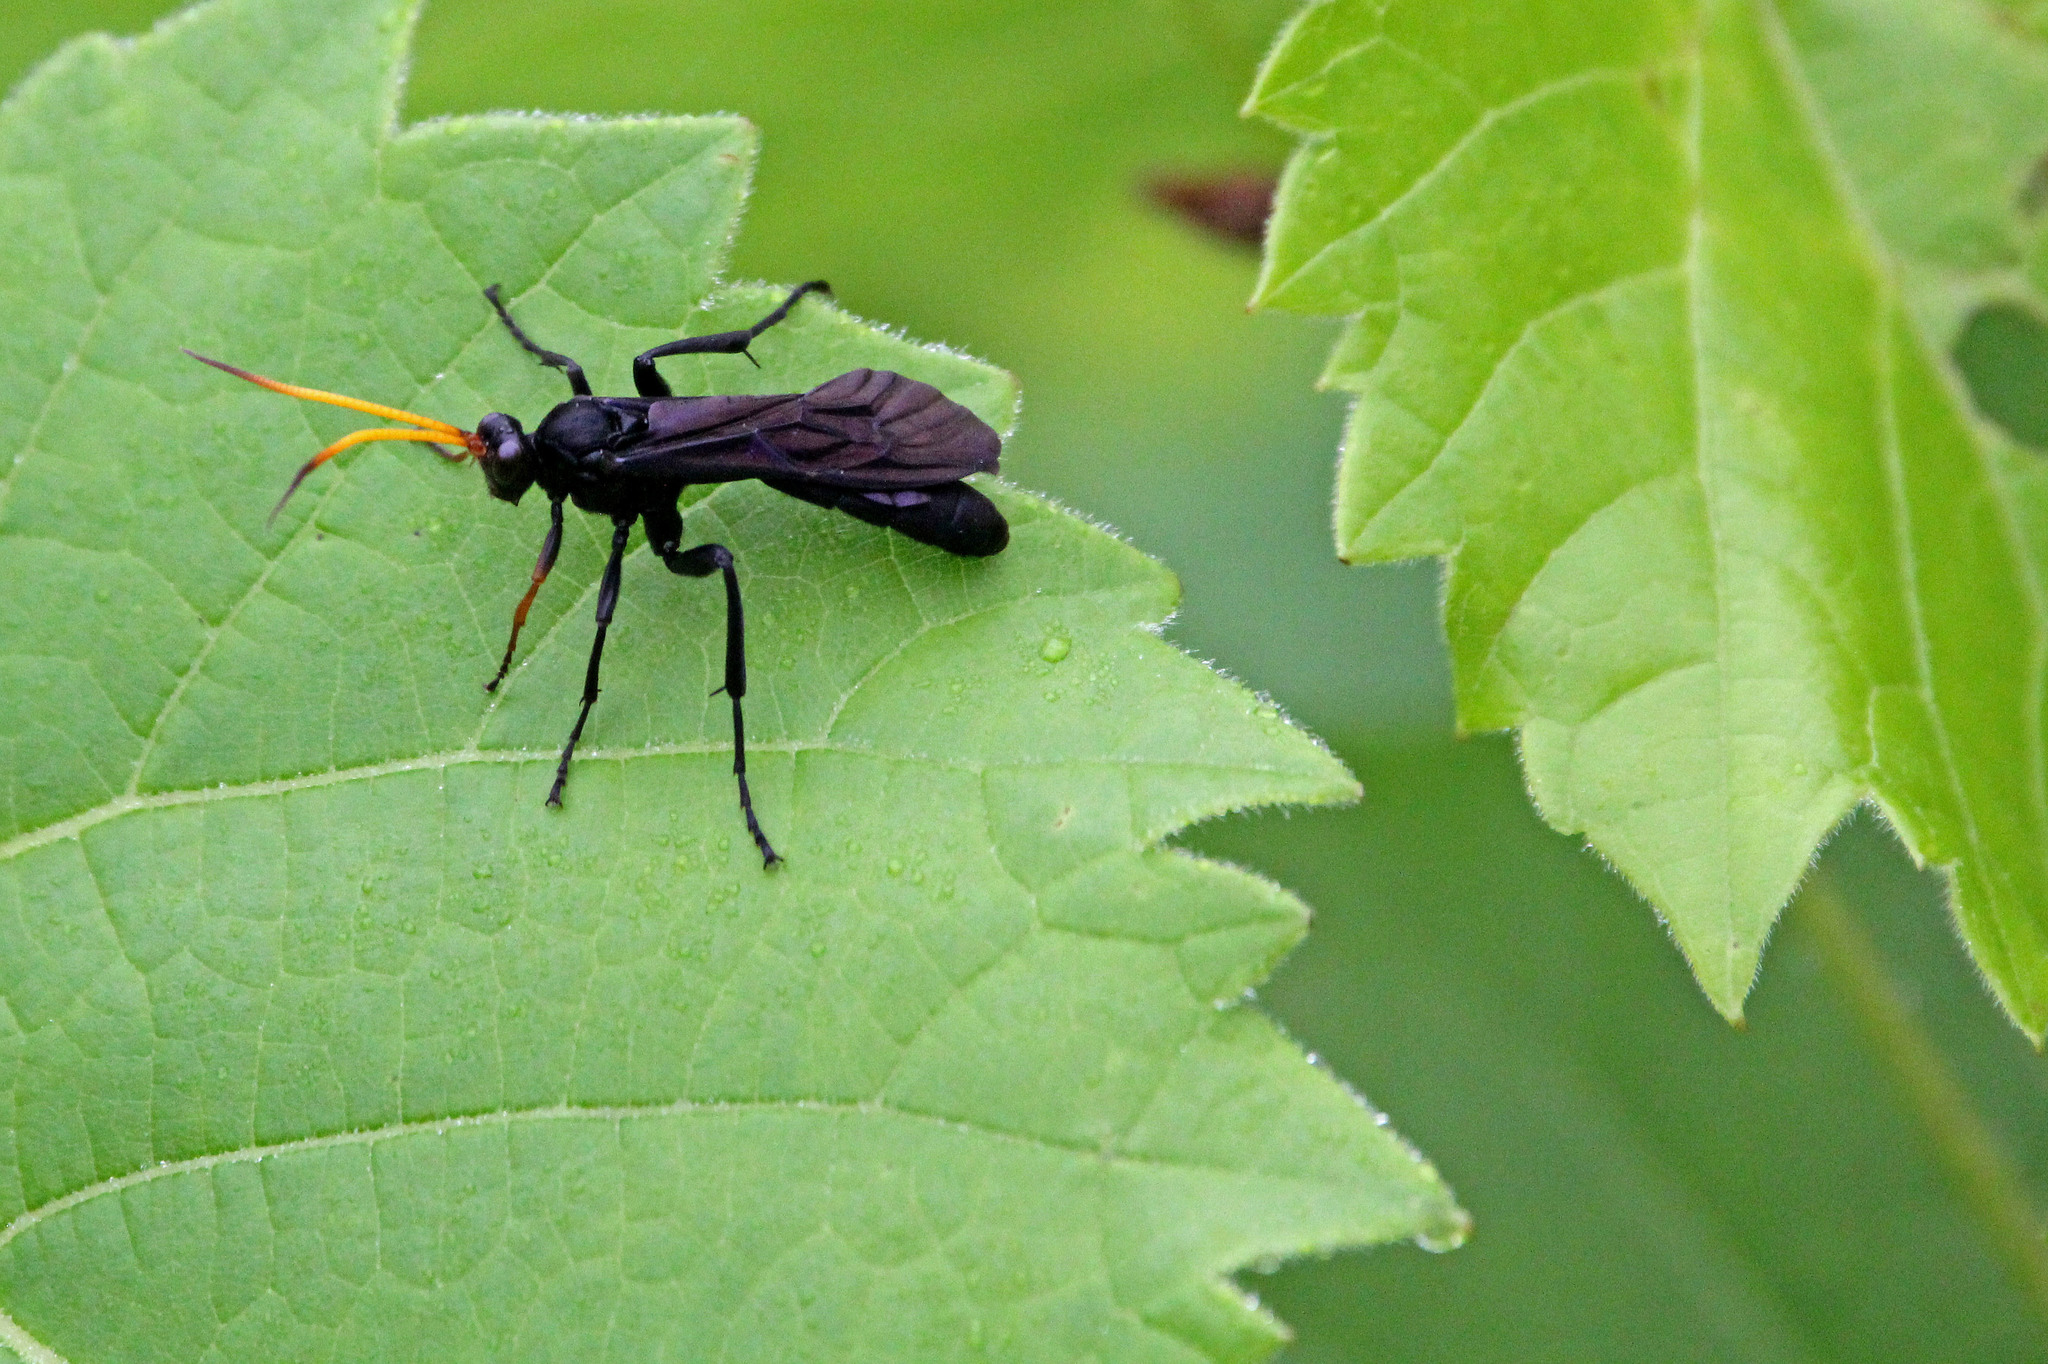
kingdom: Animalia
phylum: Arthropoda
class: Insecta
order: Hymenoptera
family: Ichneumonidae
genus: Gnamptopelta
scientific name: Gnamptopelta obsidianator
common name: Bent-shielded besieger wasp
